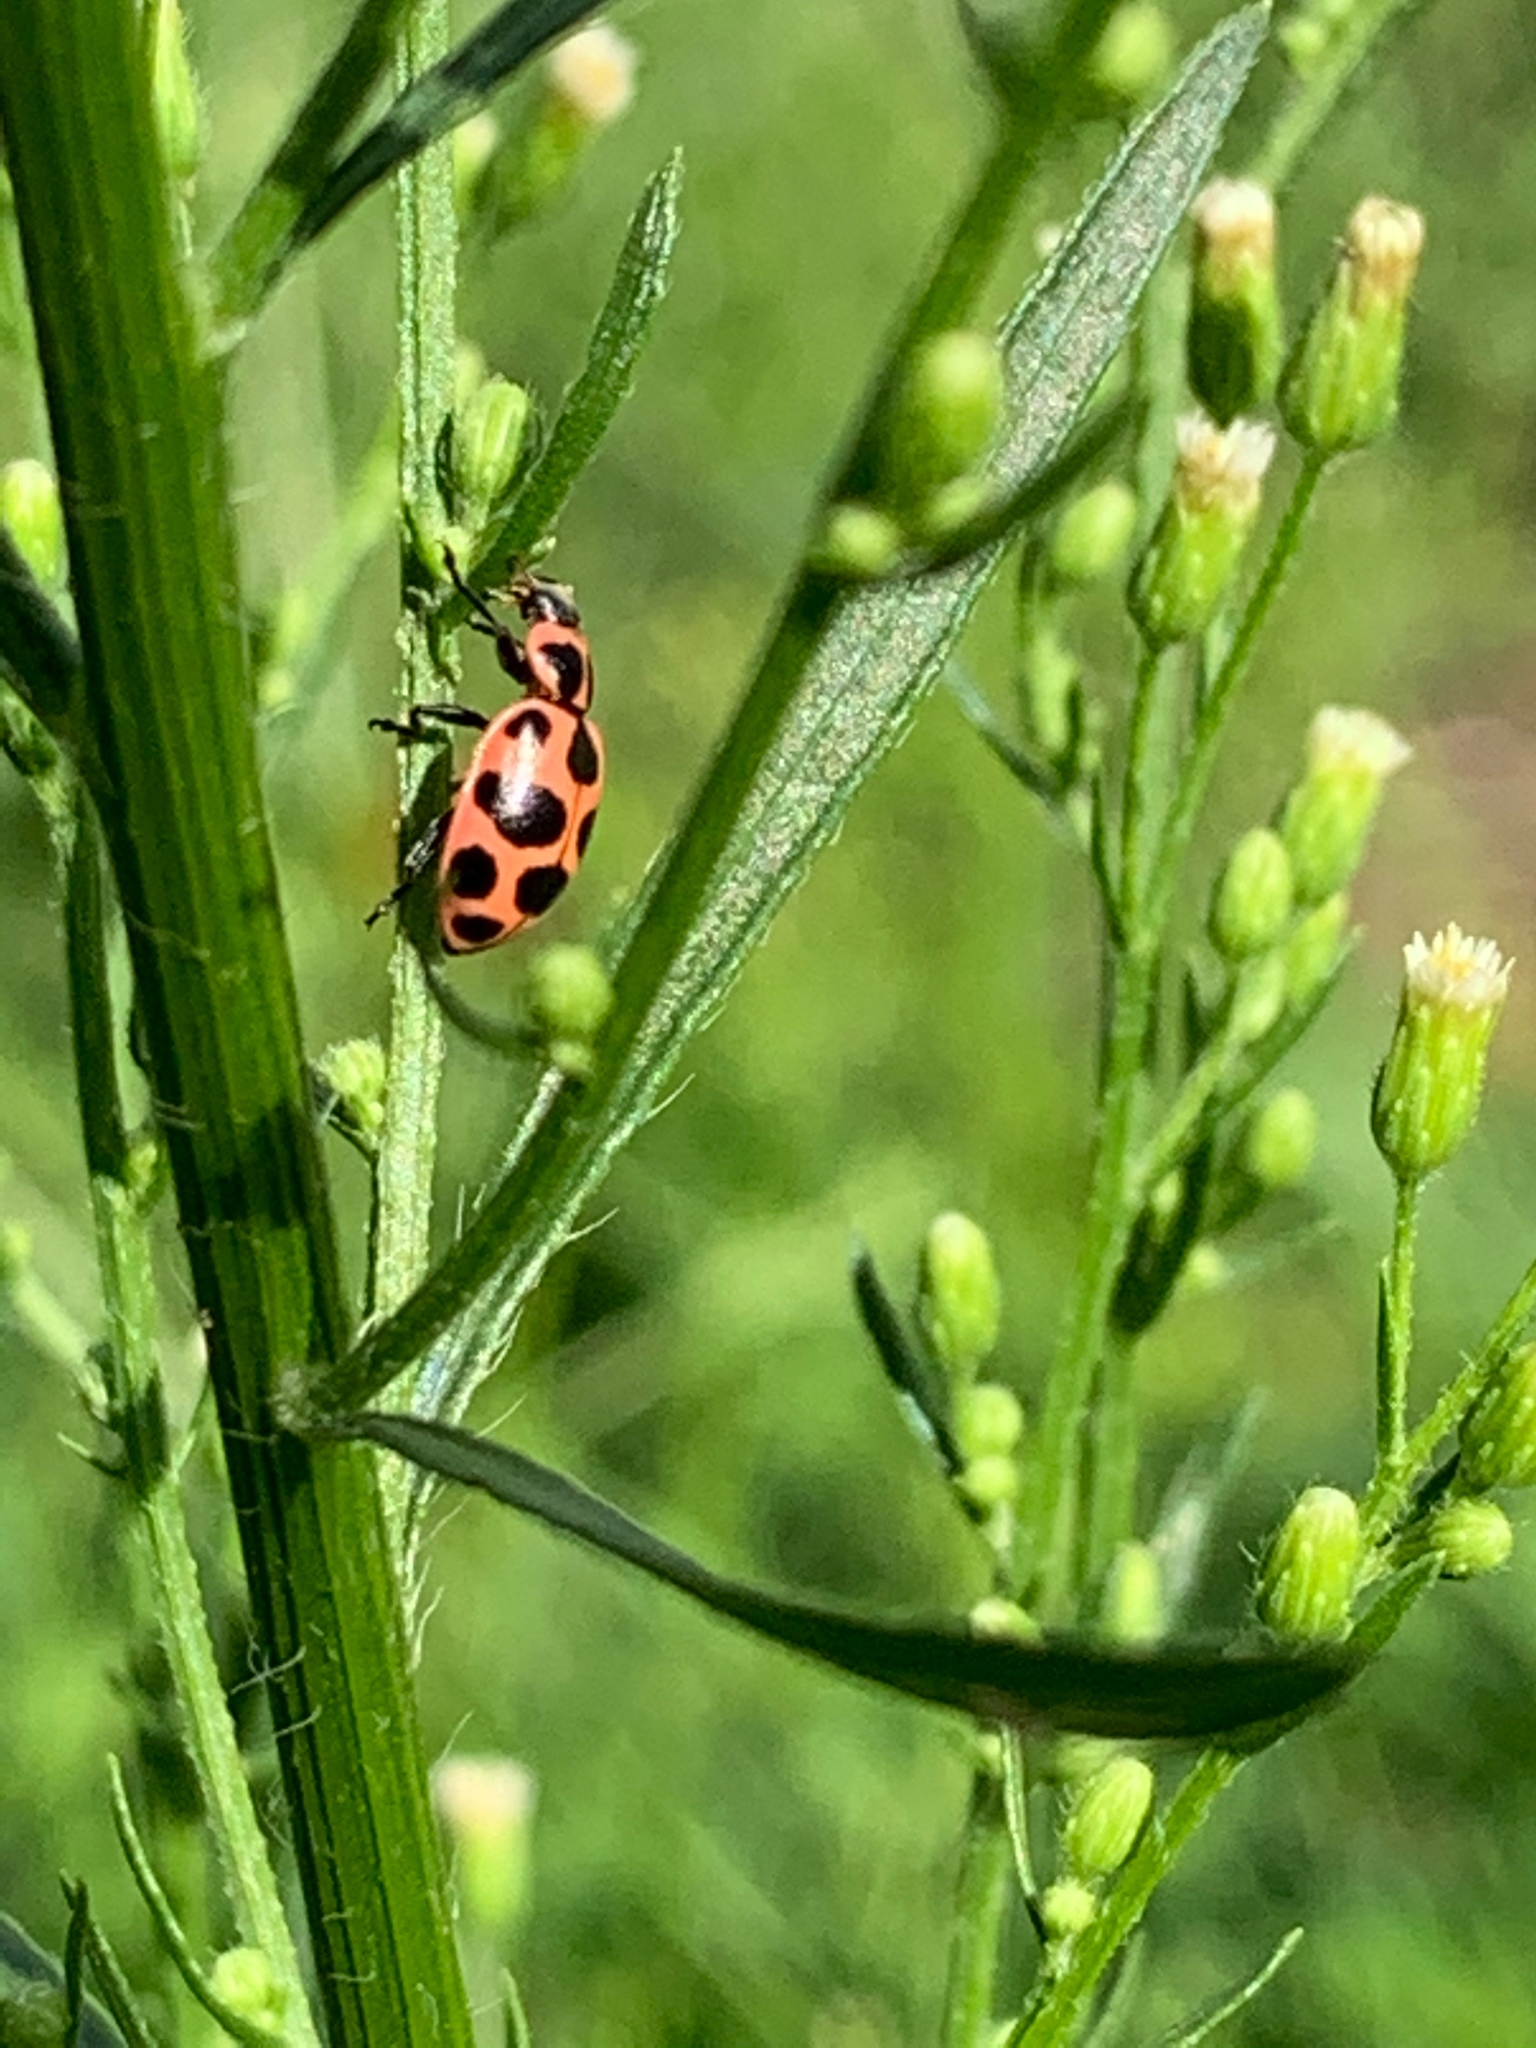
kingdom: Animalia
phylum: Arthropoda
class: Insecta
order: Coleoptera
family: Coccinellidae
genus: Coleomegilla
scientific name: Coleomegilla maculata
